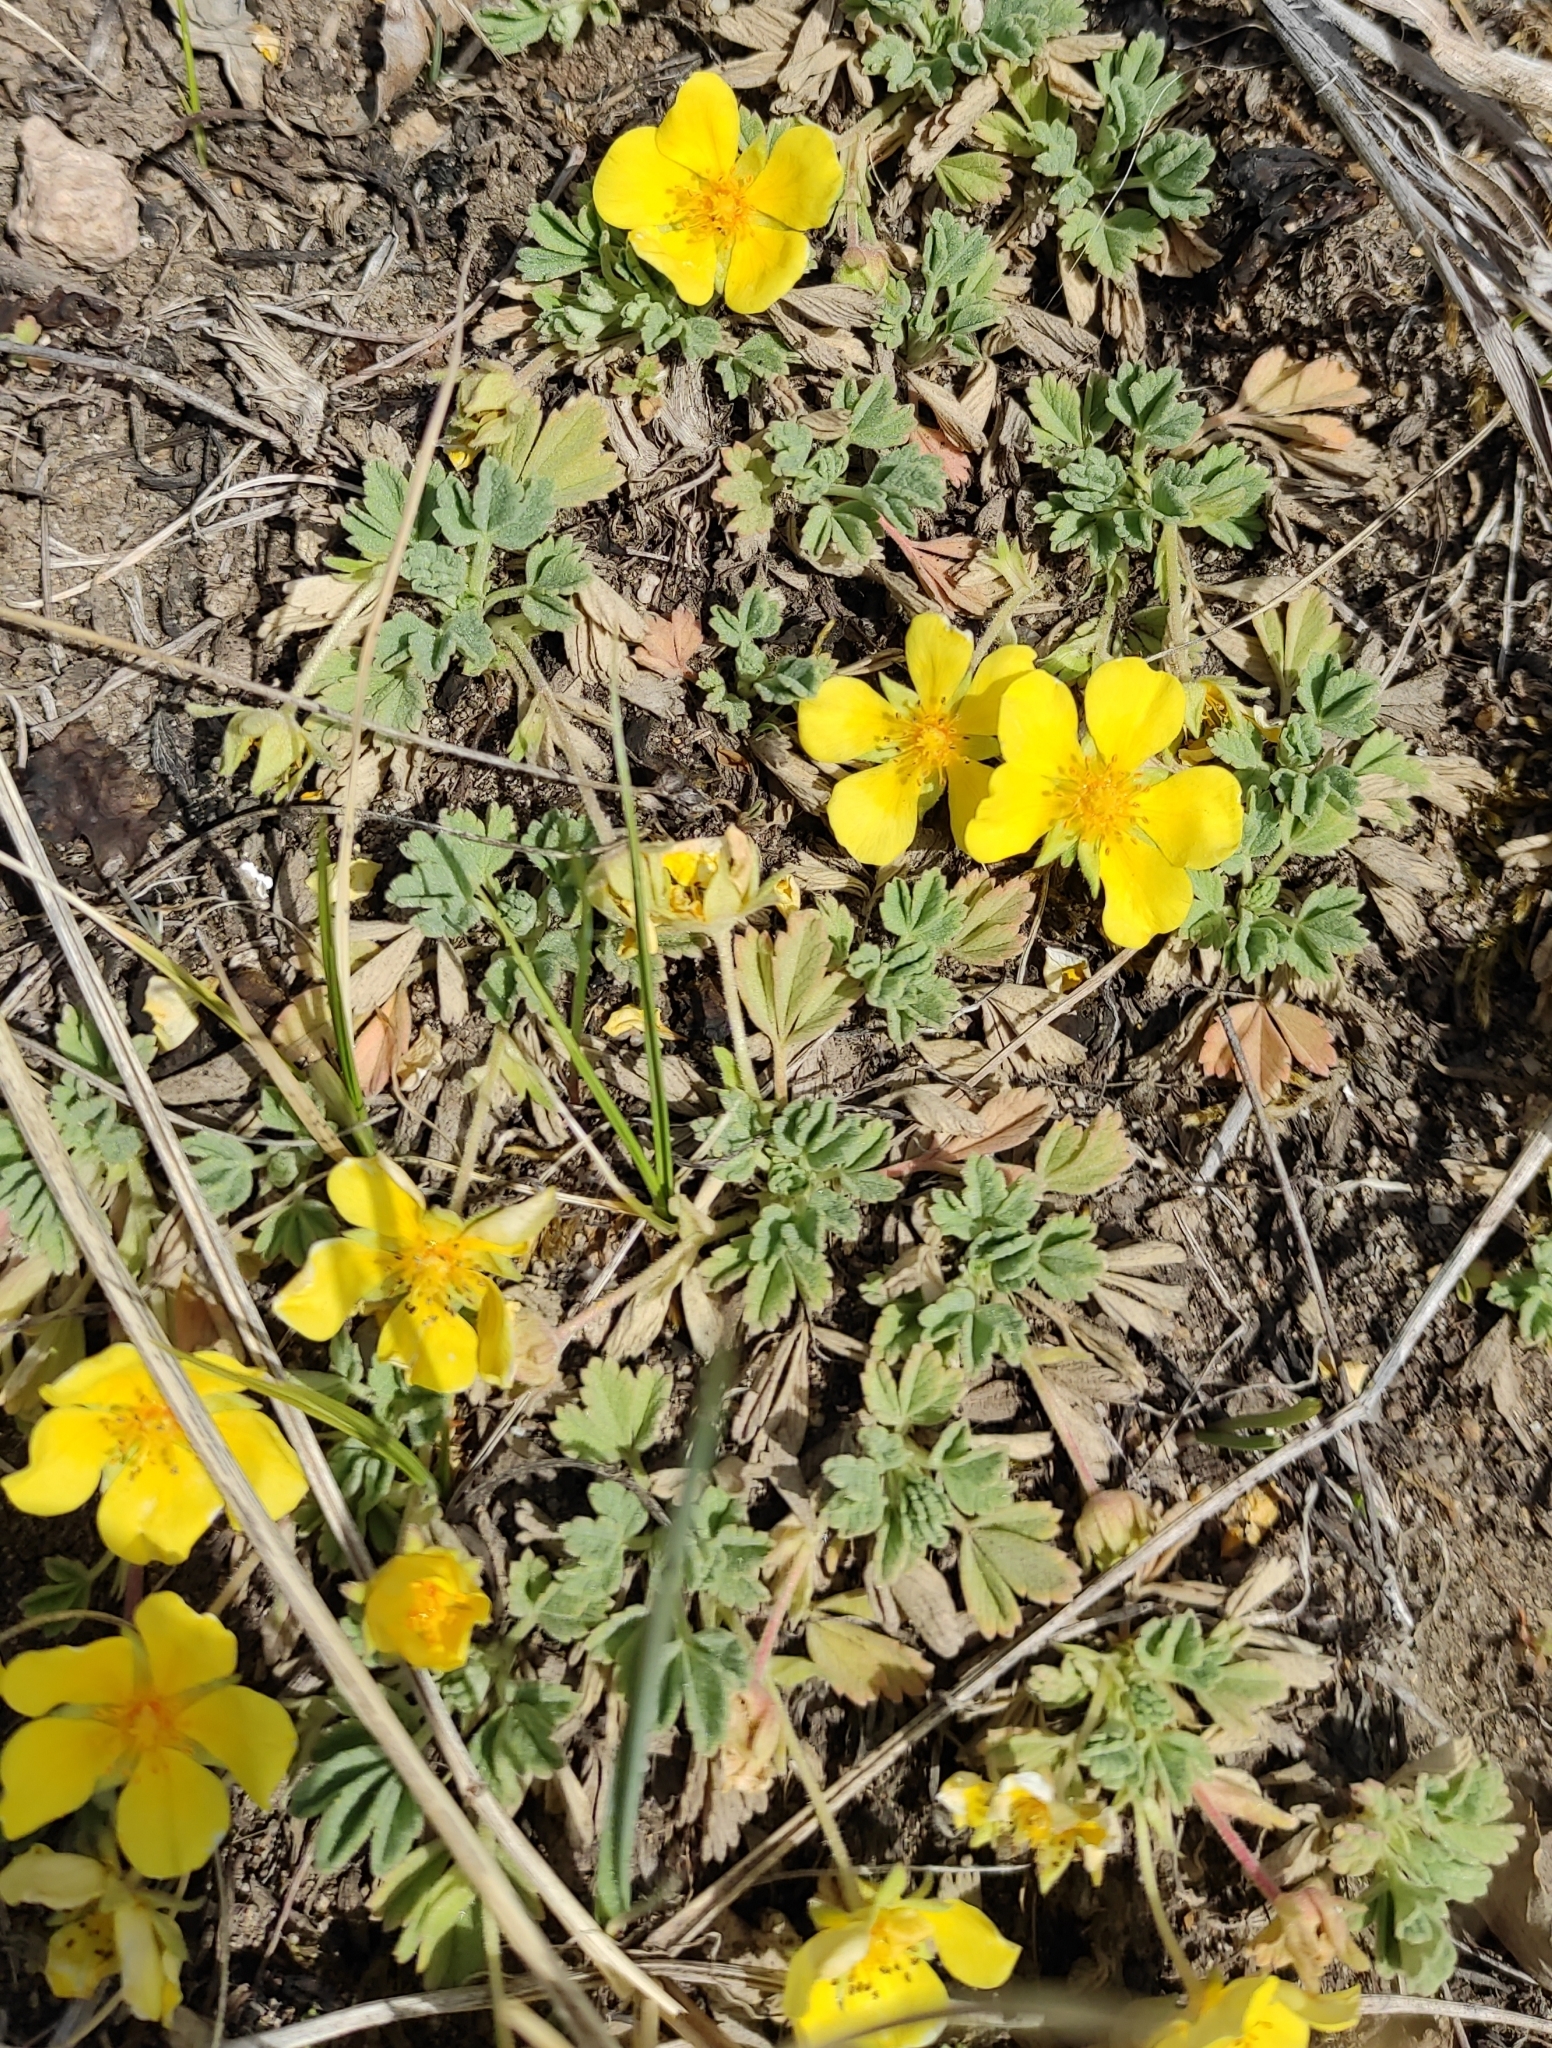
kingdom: Plantae
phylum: Tracheophyta
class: Magnoliopsida
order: Rosales
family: Rosaceae
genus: Potentilla
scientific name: Potentilla acaulis
